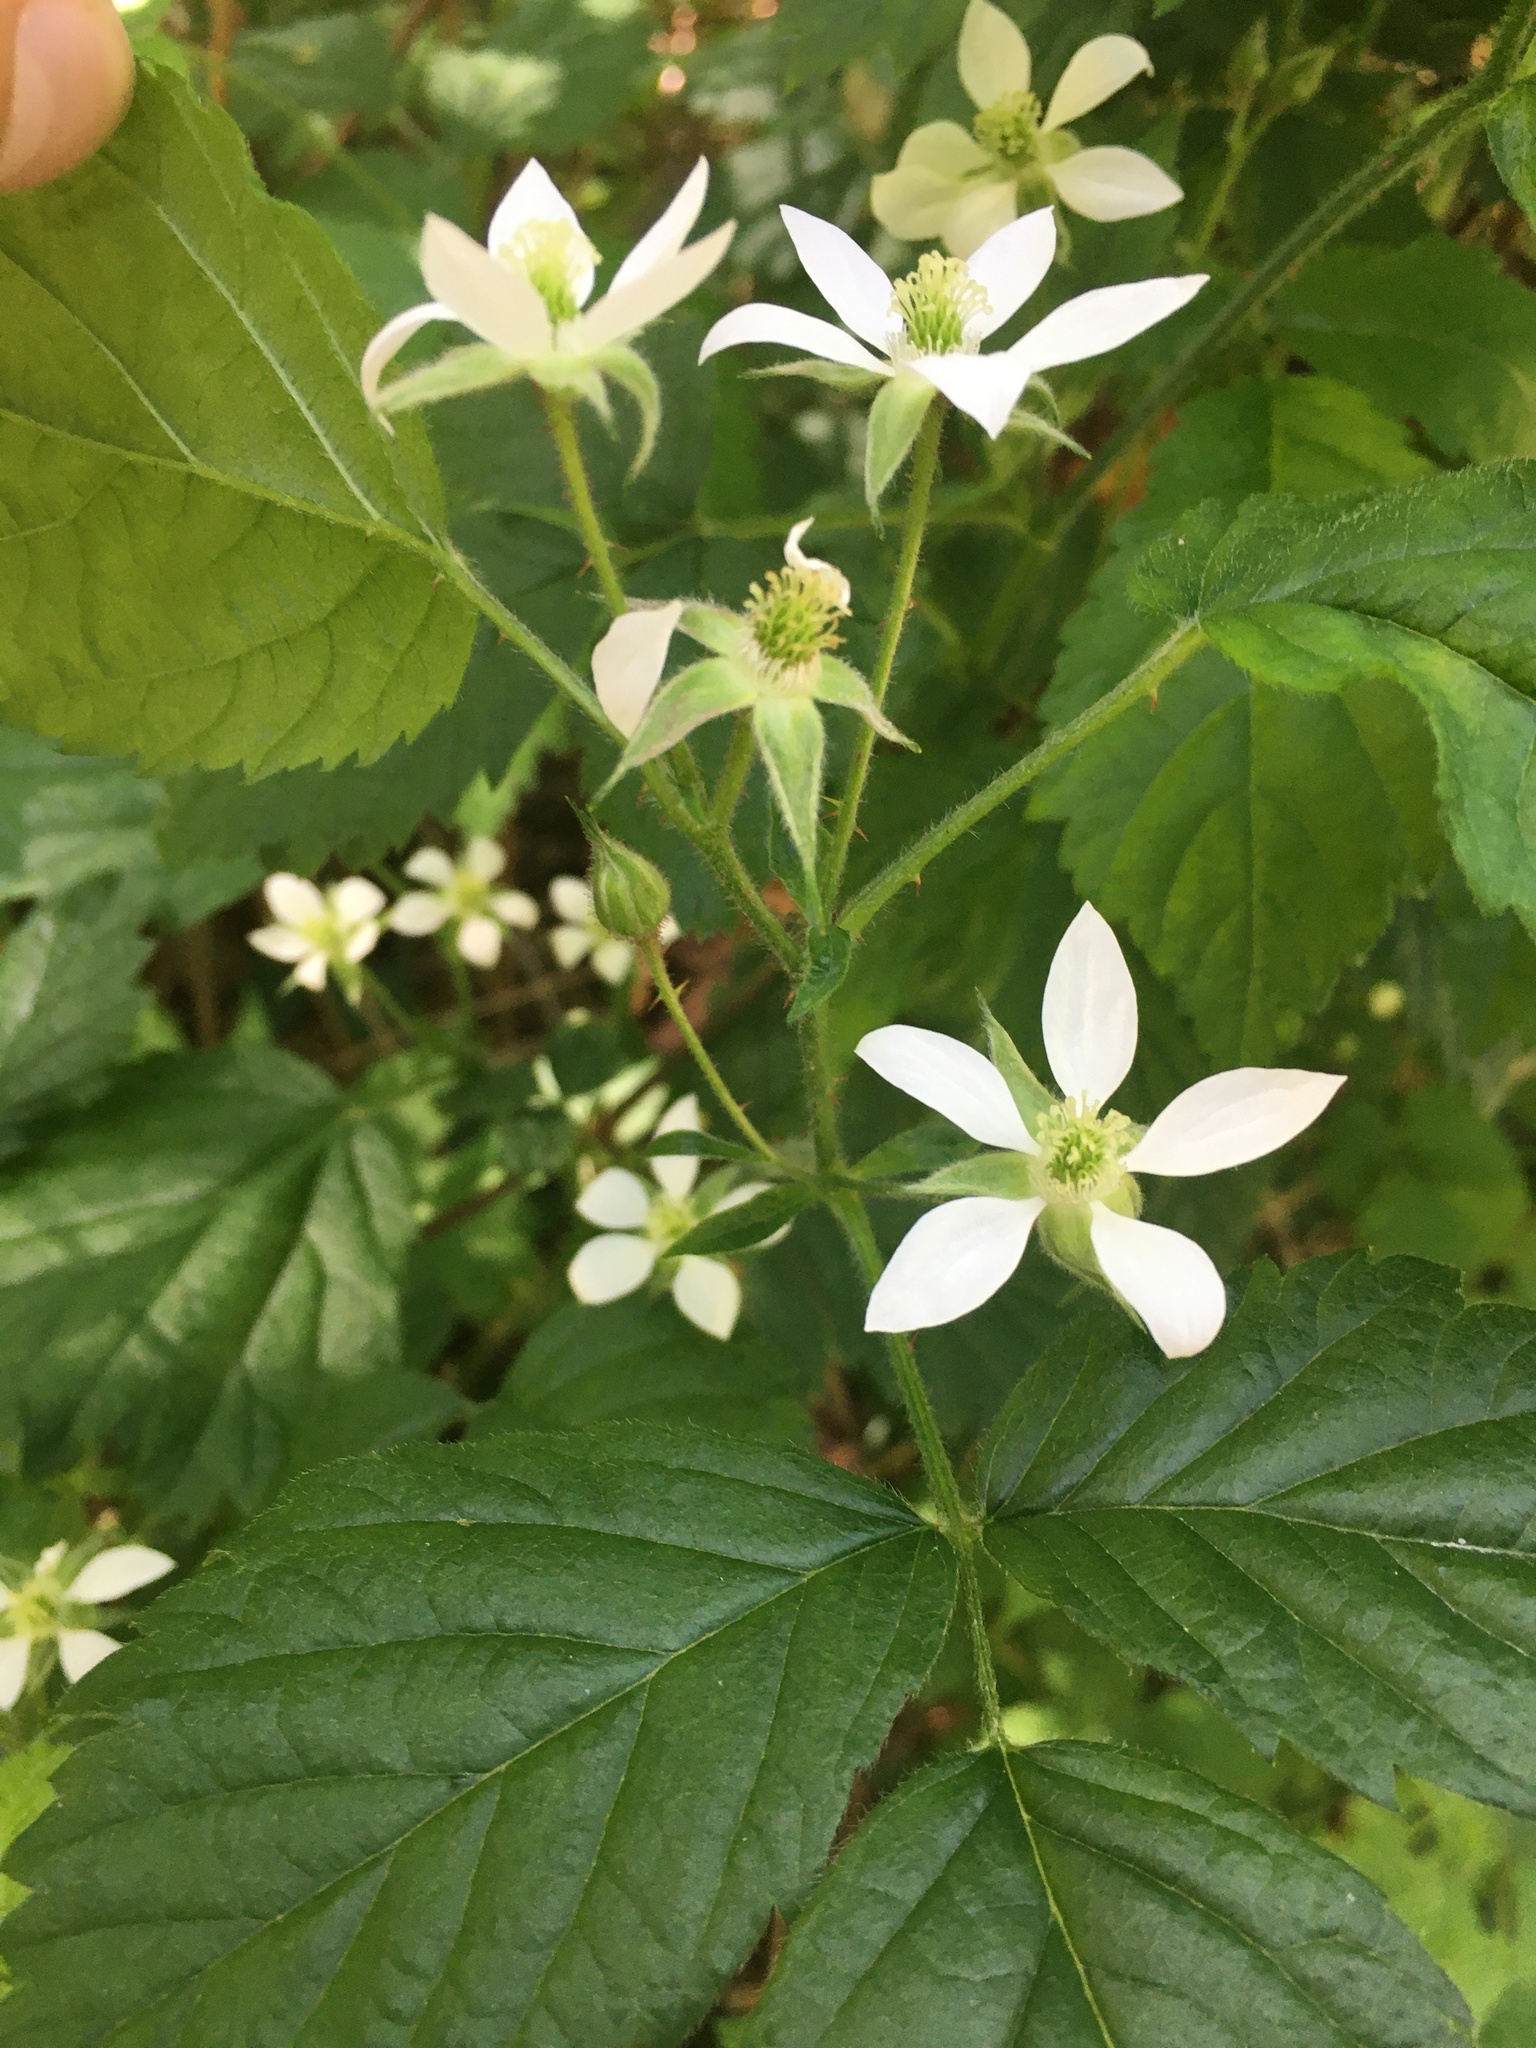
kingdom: Plantae
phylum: Tracheophyta
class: Magnoliopsida
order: Rosales
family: Rosaceae
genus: Rubus
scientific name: Rubus ursinus
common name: Pacific blackberry
